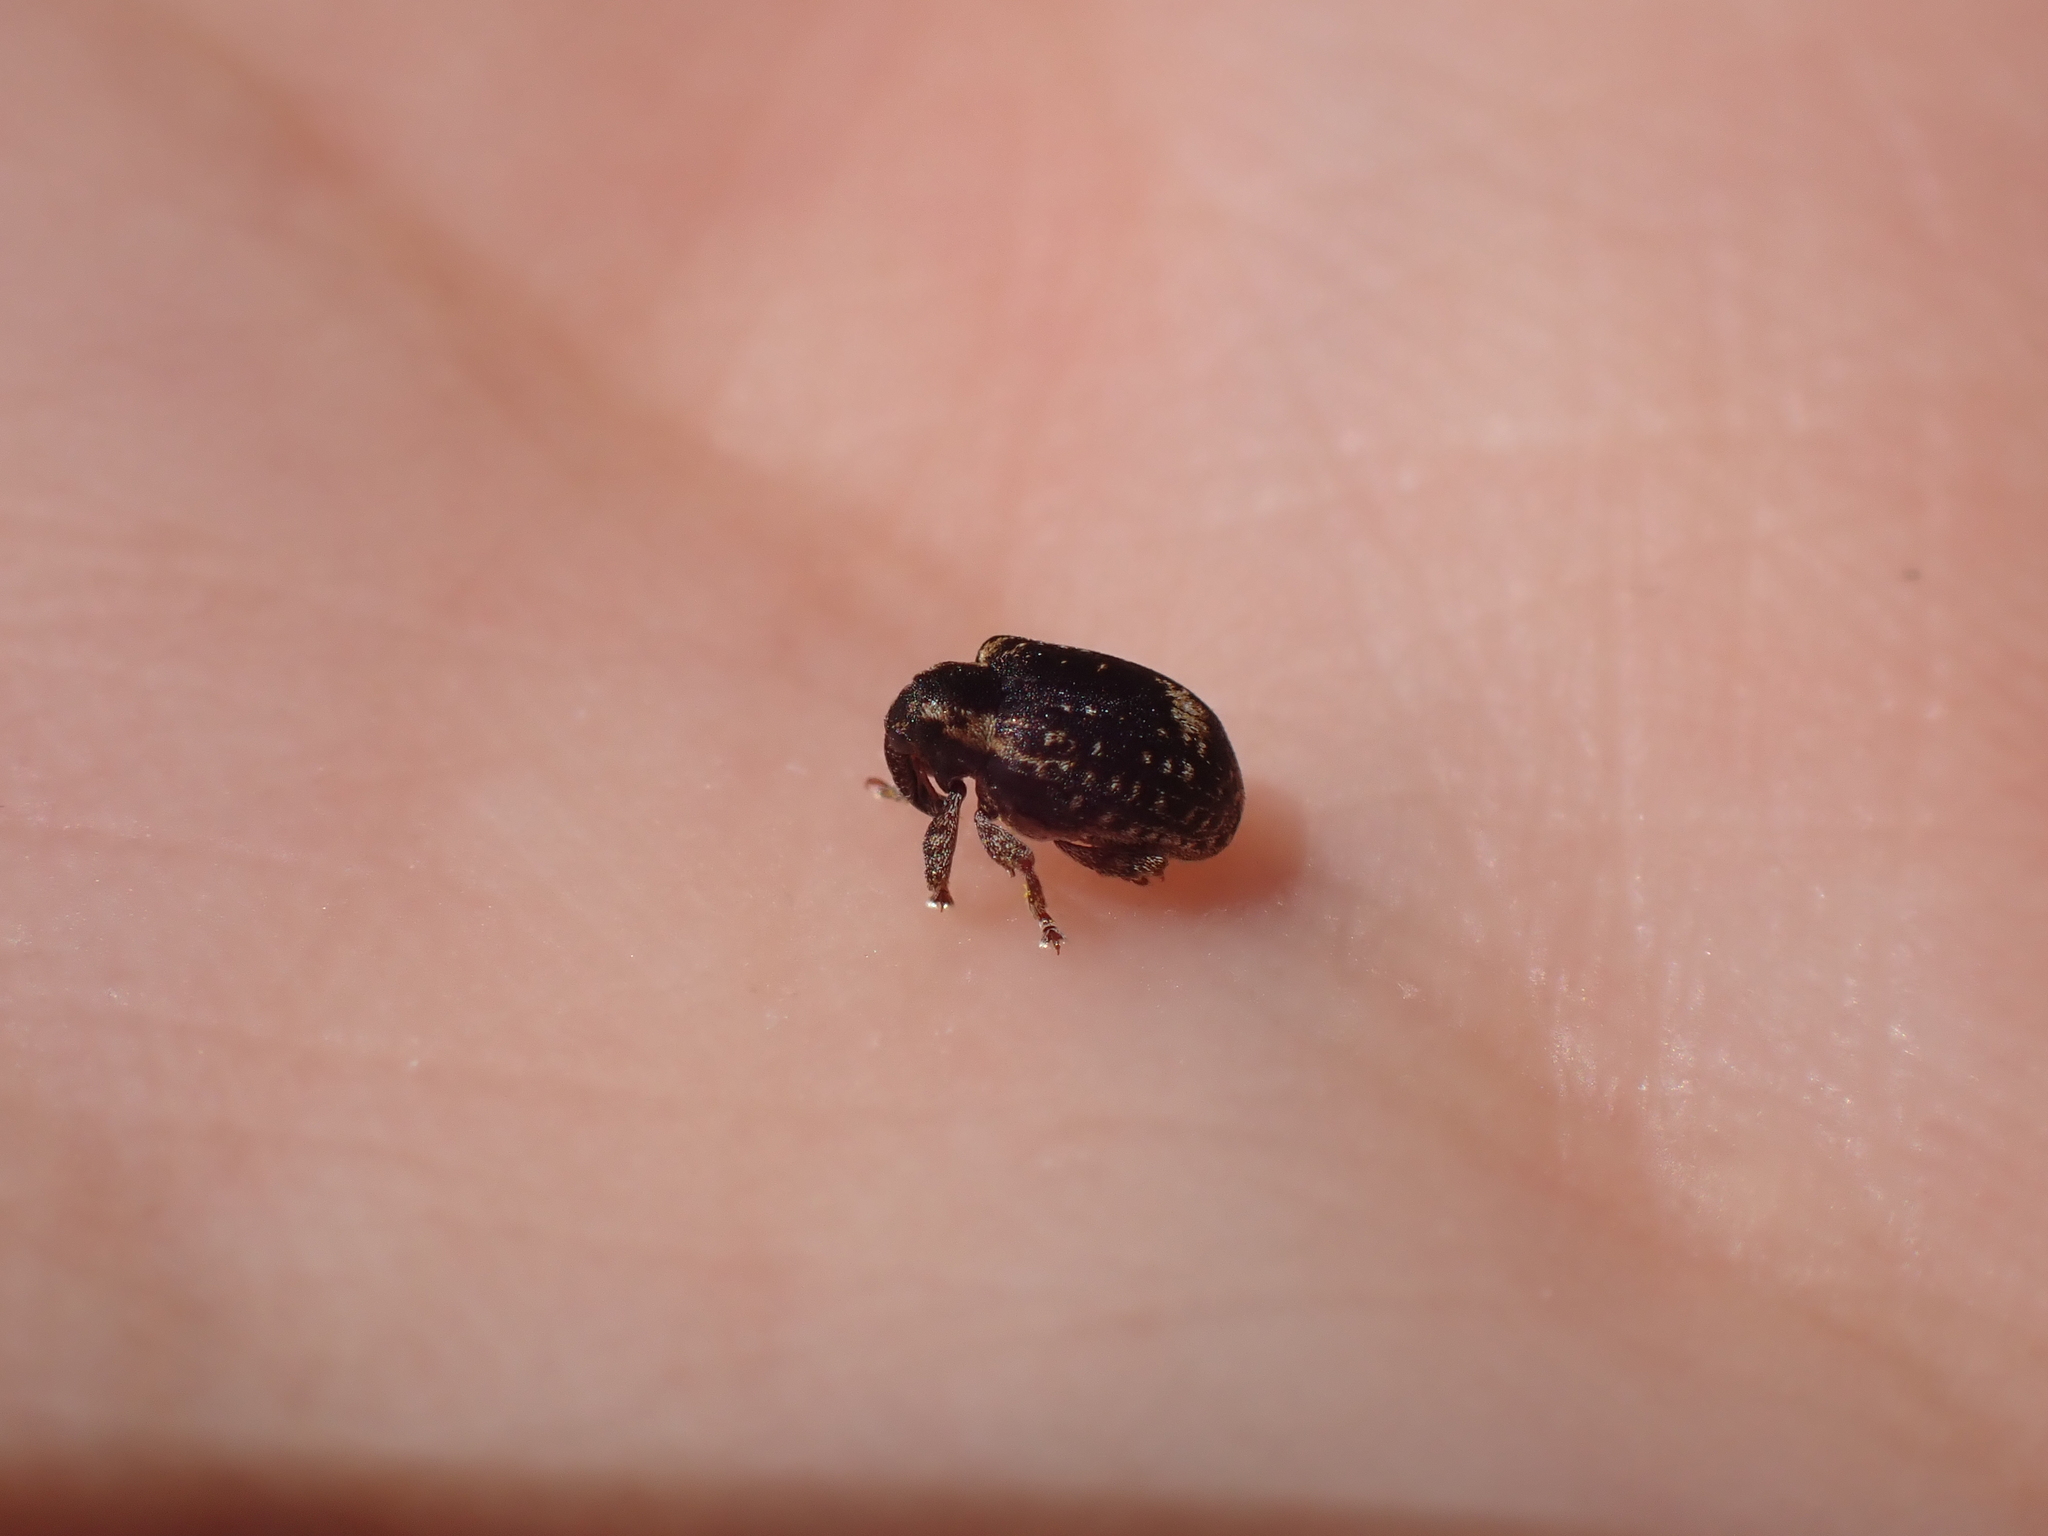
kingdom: Animalia
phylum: Arthropoda
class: Insecta
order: Coleoptera
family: Curculionidae
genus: Stereonychus
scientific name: Stereonychus fraxini
